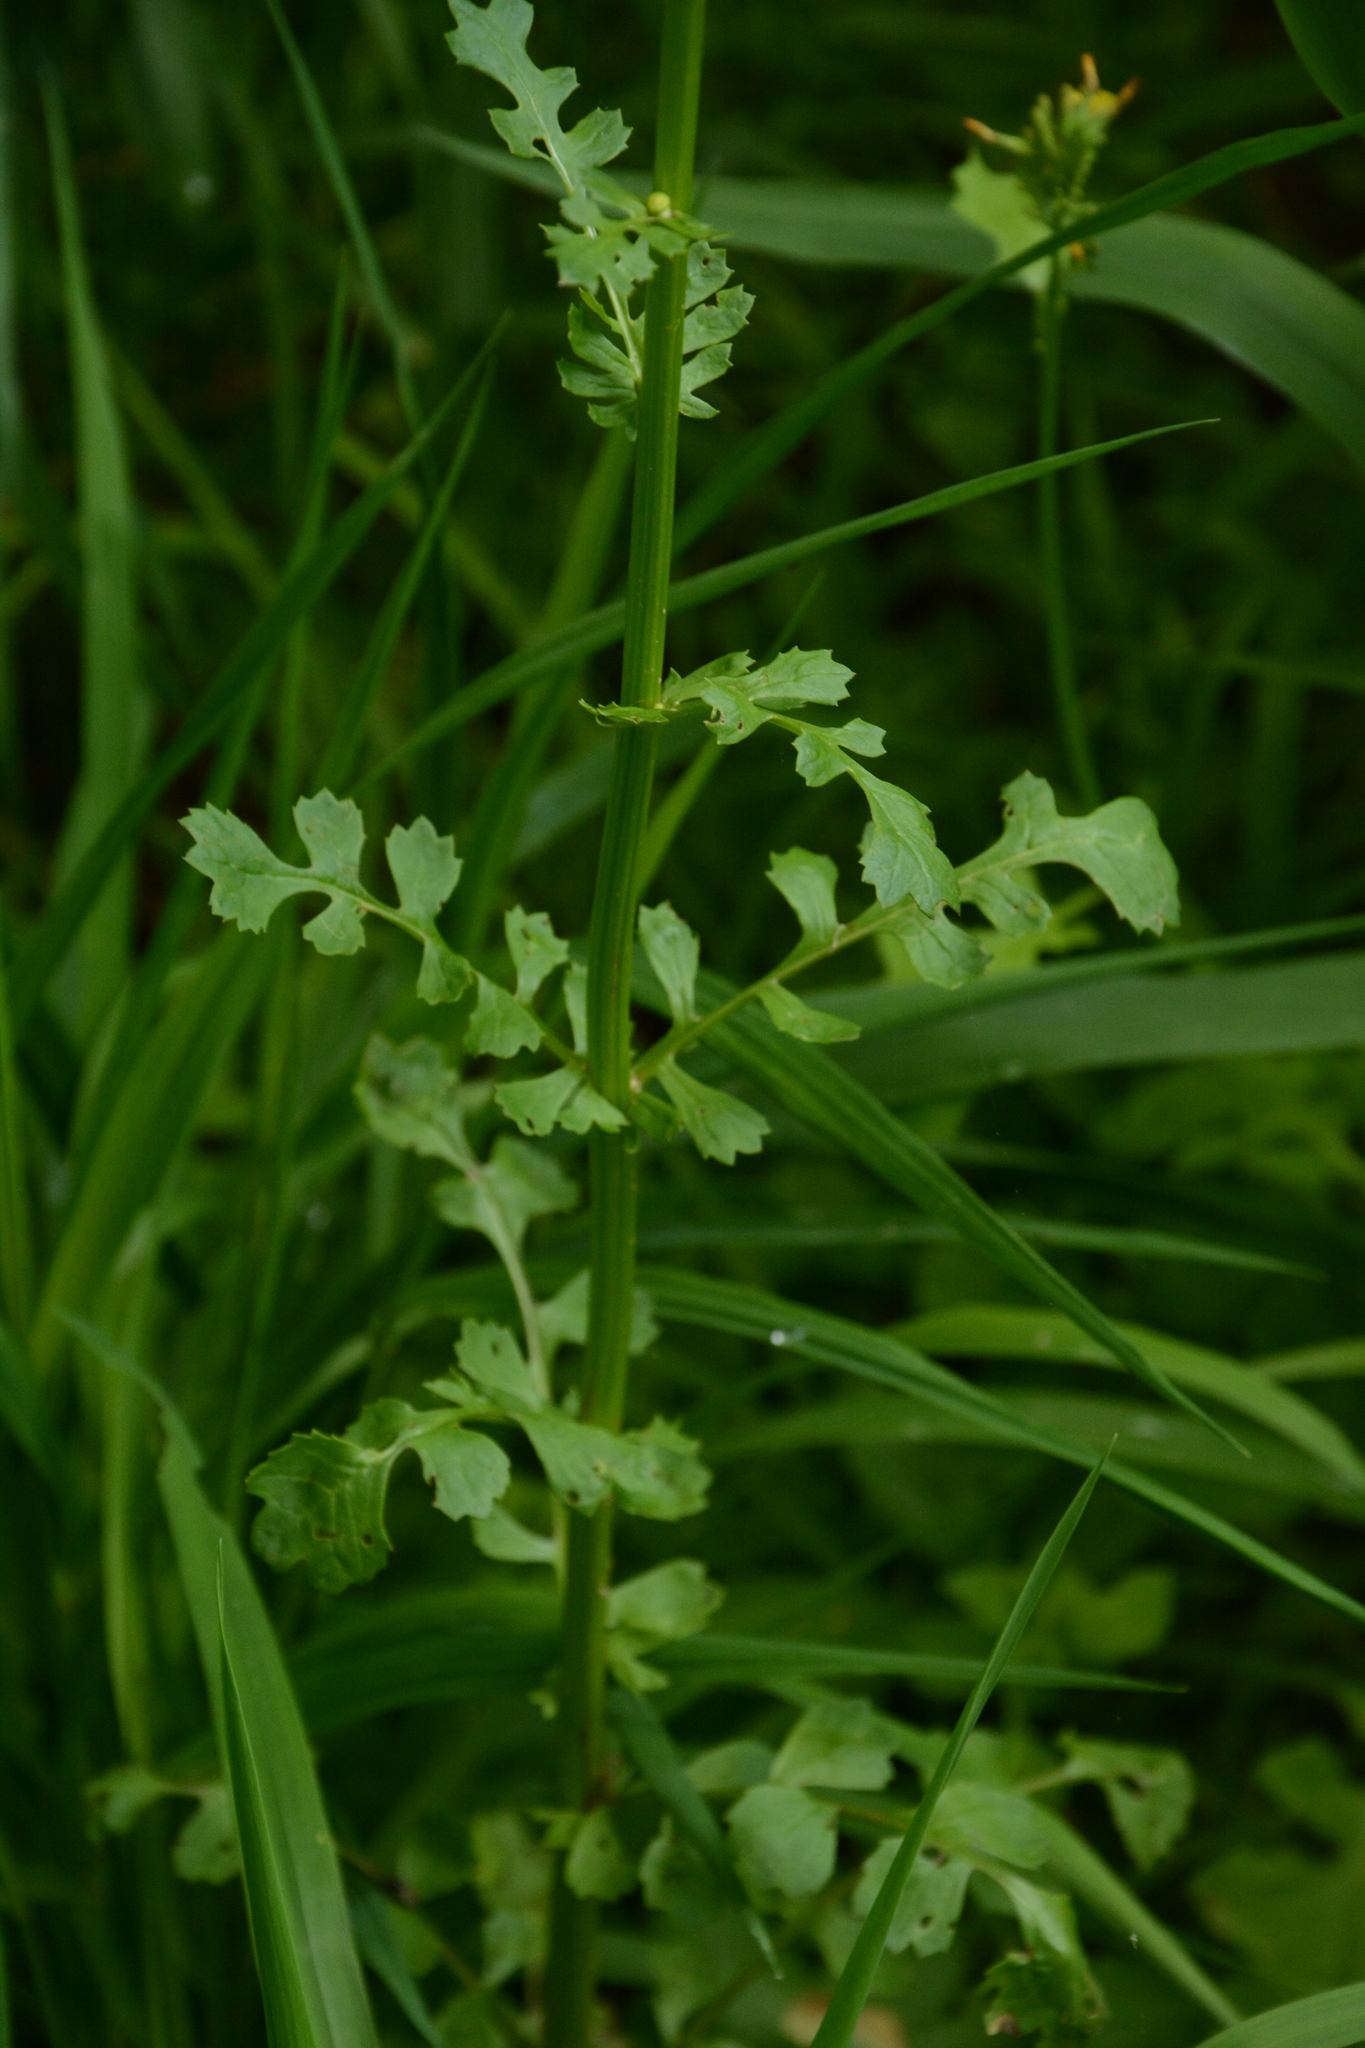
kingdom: Plantae
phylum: Tracheophyta
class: Magnoliopsida
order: Asterales
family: Asteraceae
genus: Packera
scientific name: Packera glabella
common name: Butterweed
